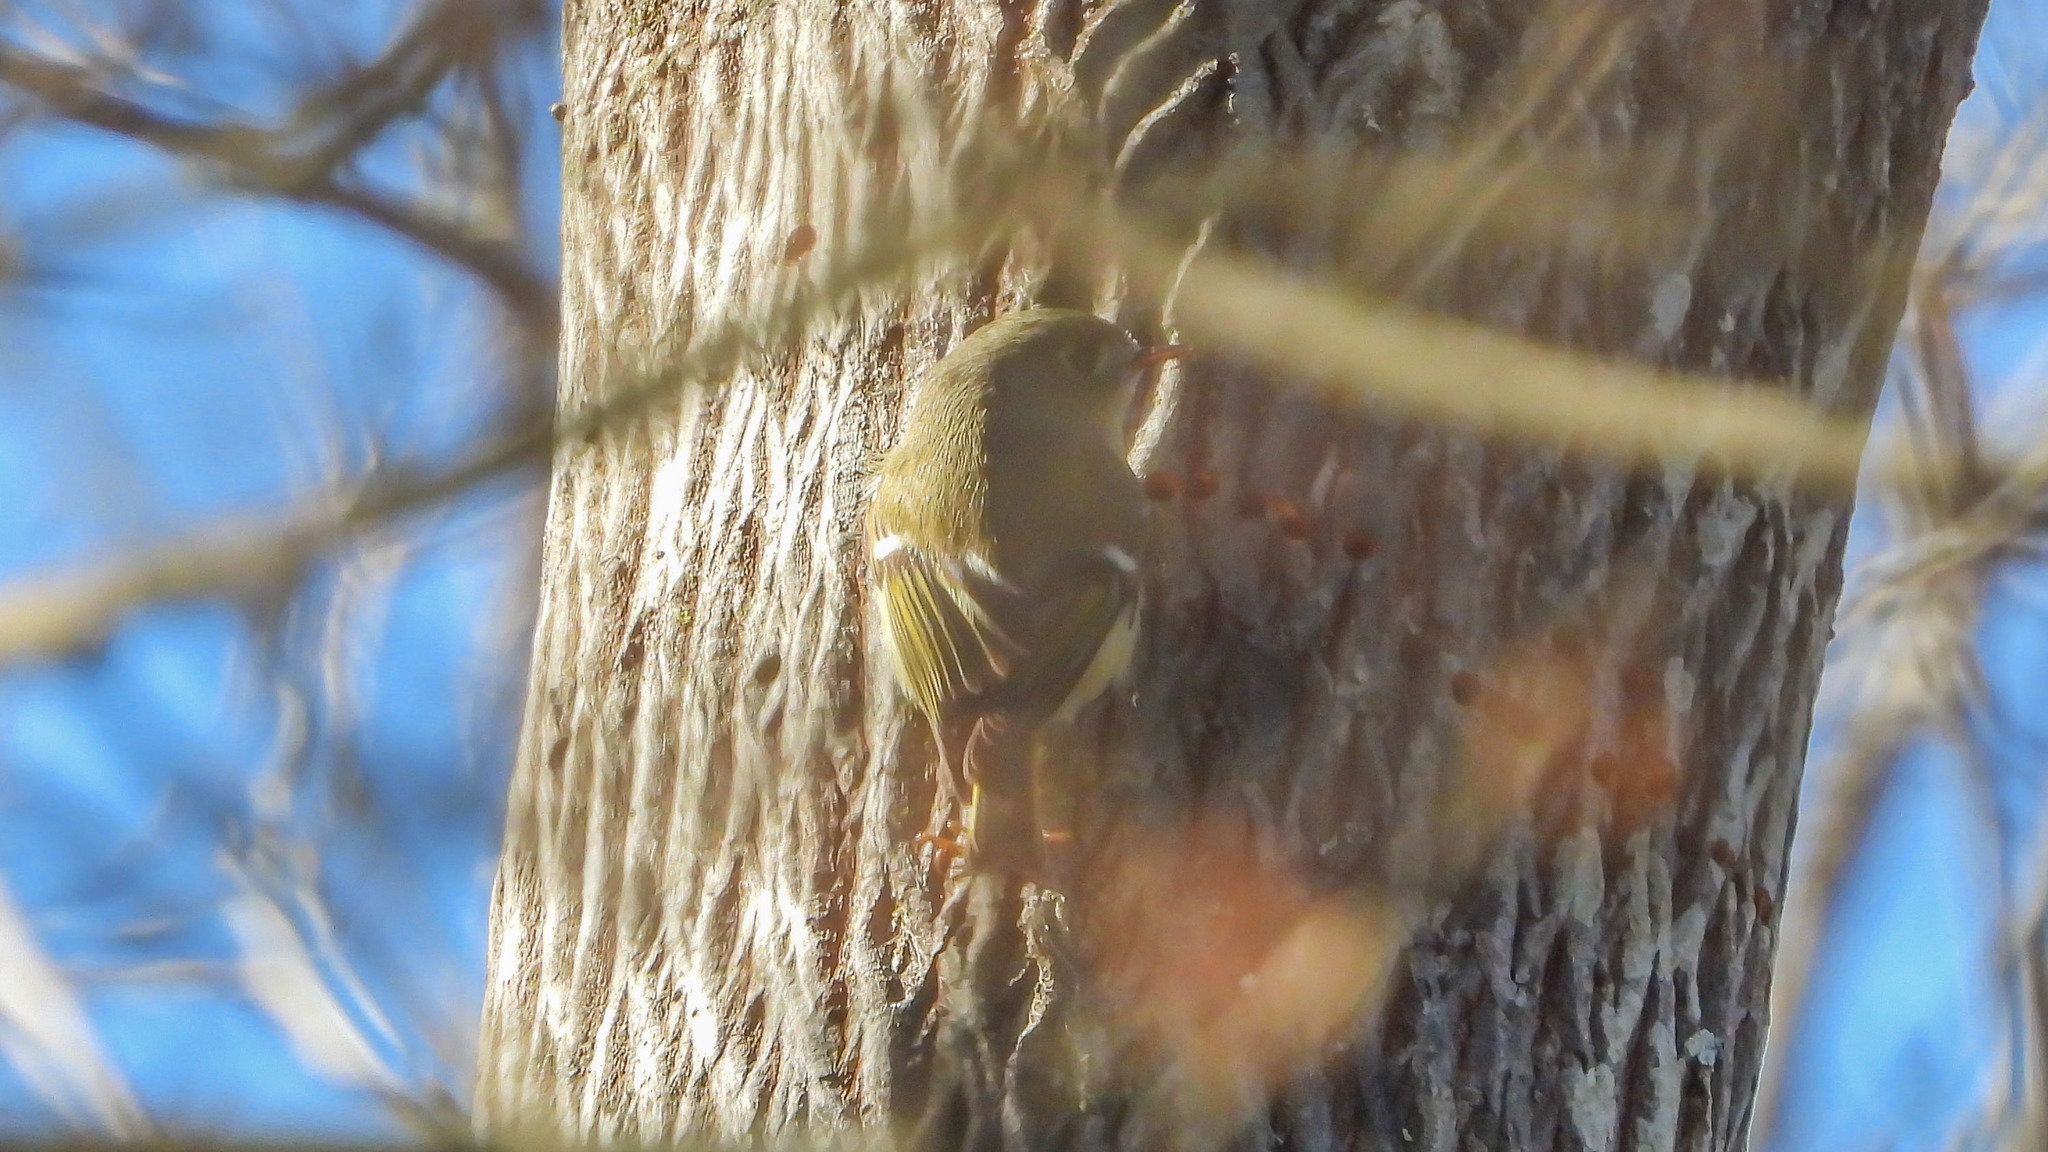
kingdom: Animalia
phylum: Chordata
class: Aves
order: Passeriformes
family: Regulidae
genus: Regulus
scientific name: Regulus calendula
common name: Ruby-crowned kinglet
